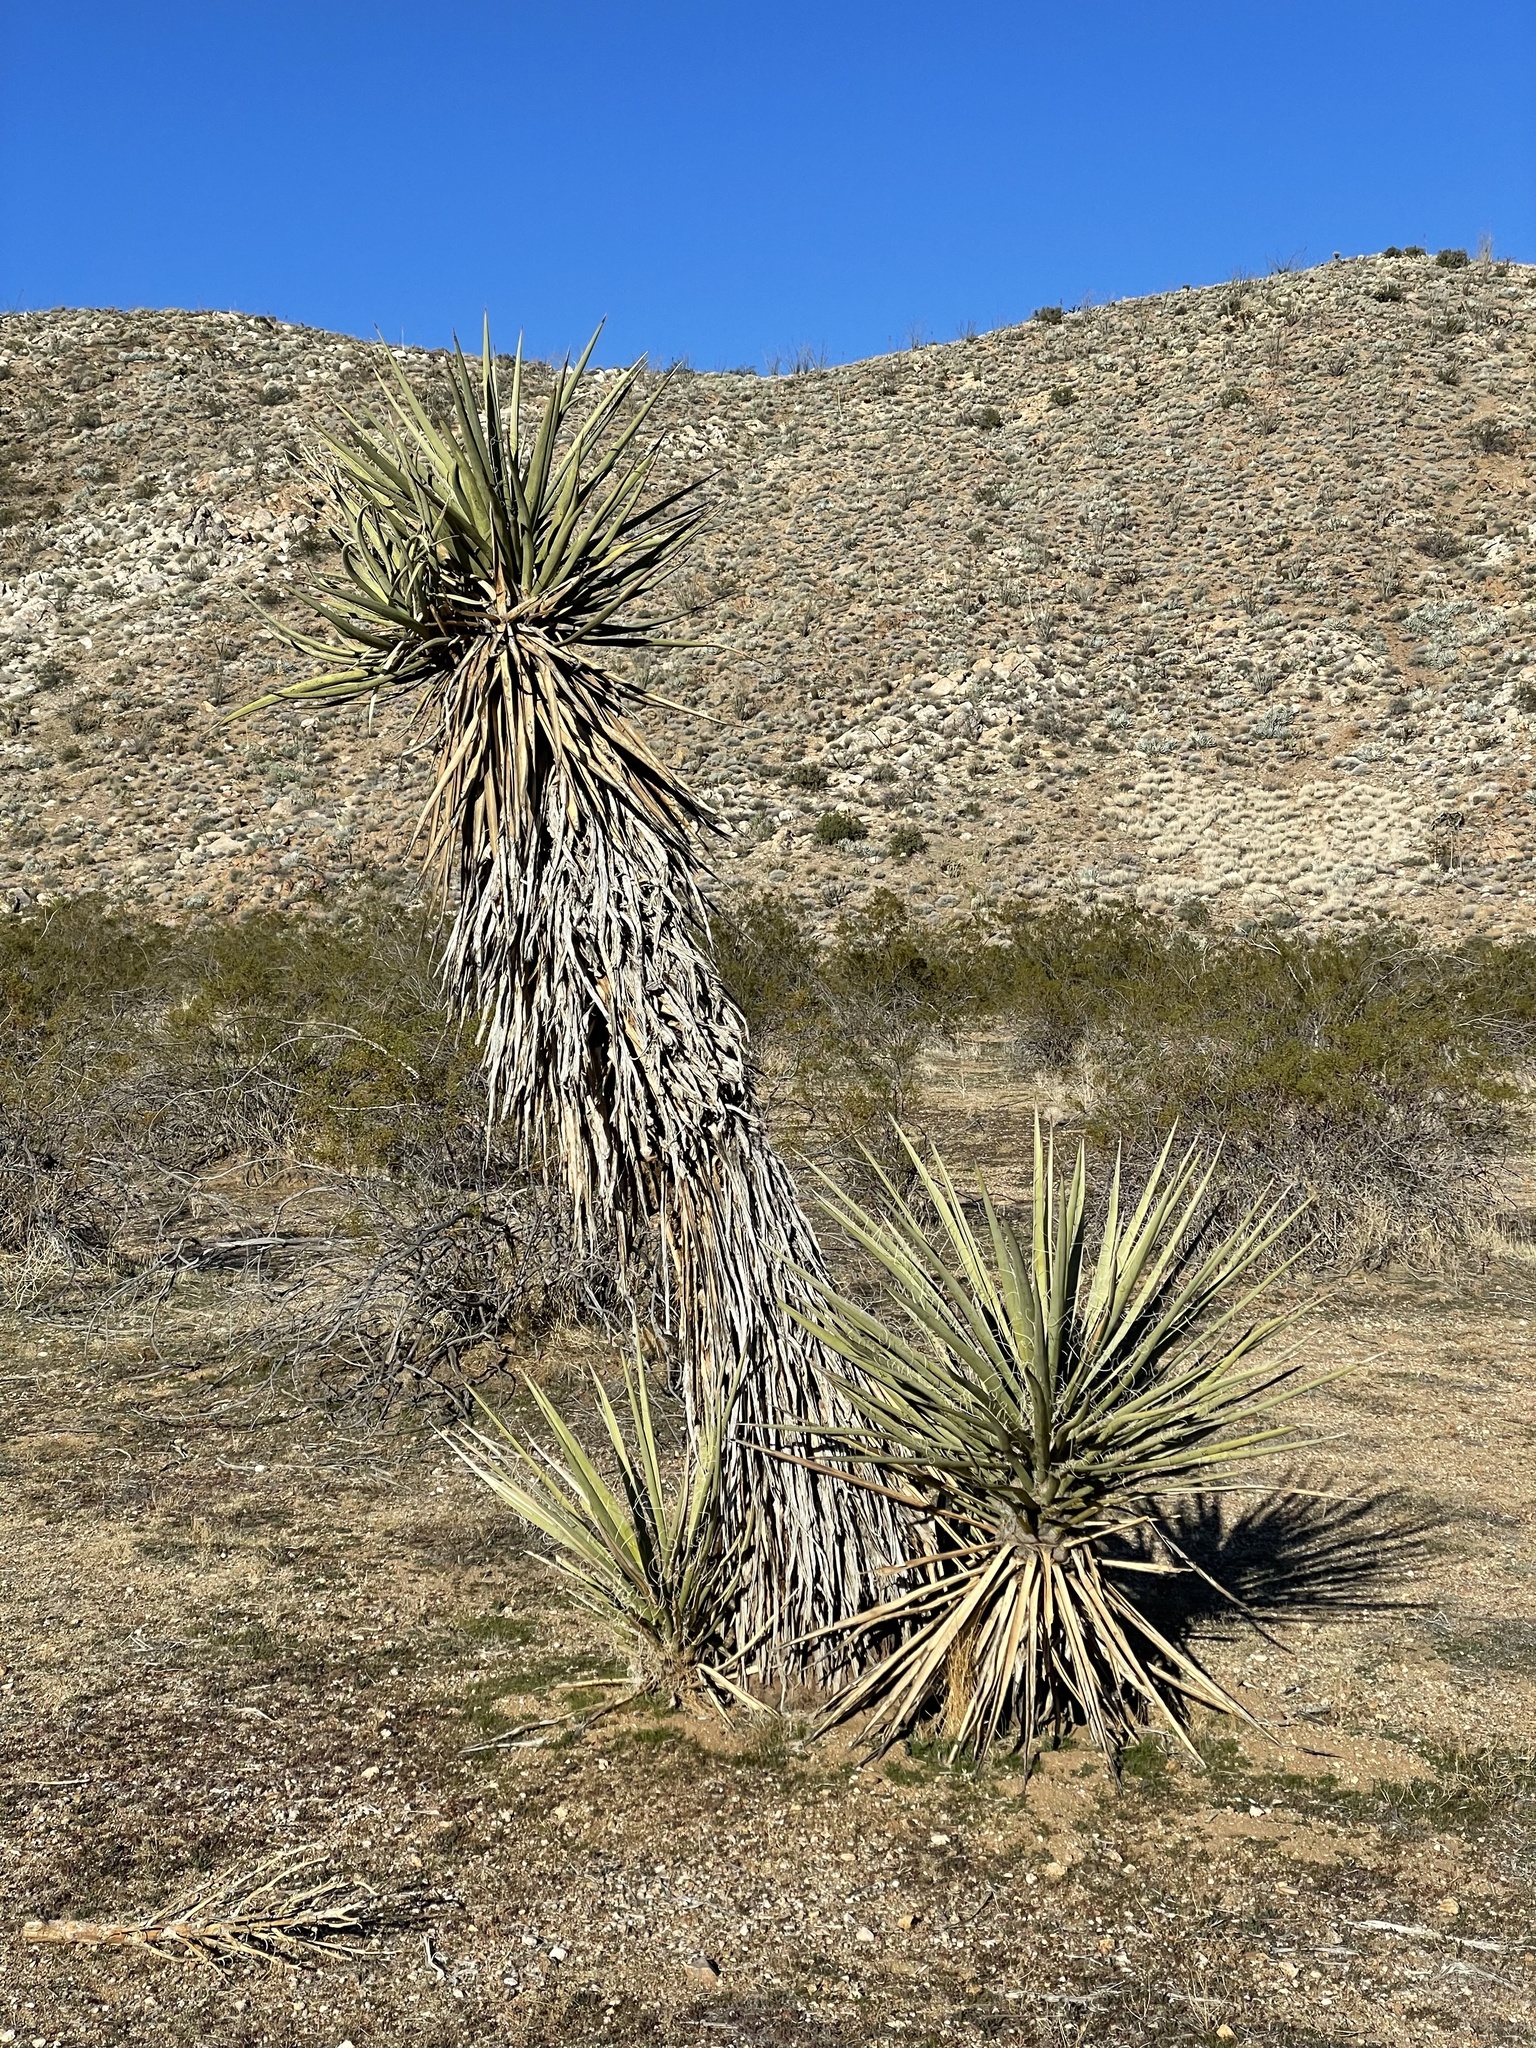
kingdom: Plantae
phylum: Tracheophyta
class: Liliopsida
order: Asparagales
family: Asparagaceae
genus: Yucca
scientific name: Yucca schidigera
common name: Mojave yucca
